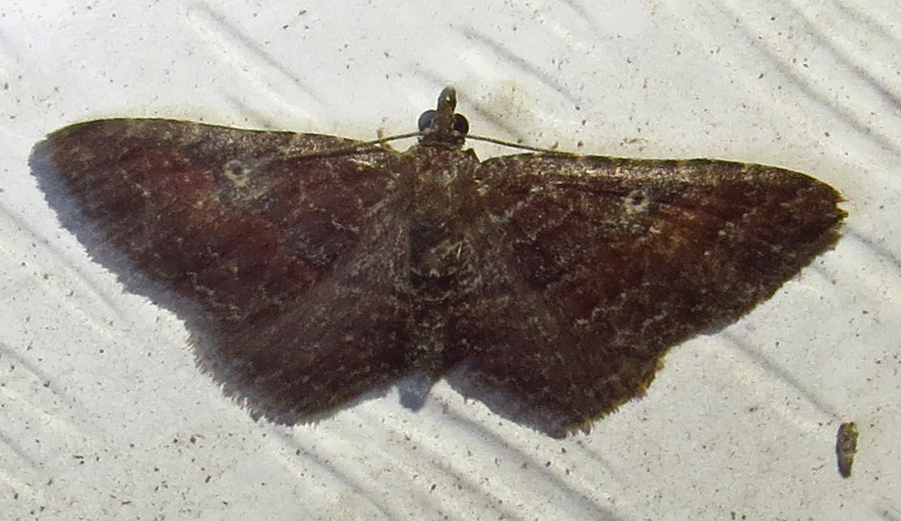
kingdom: Animalia
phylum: Arthropoda
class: Insecta
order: Lepidoptera
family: Geometridae
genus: Orthonama
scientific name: Orthonama obstipata
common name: The gem
